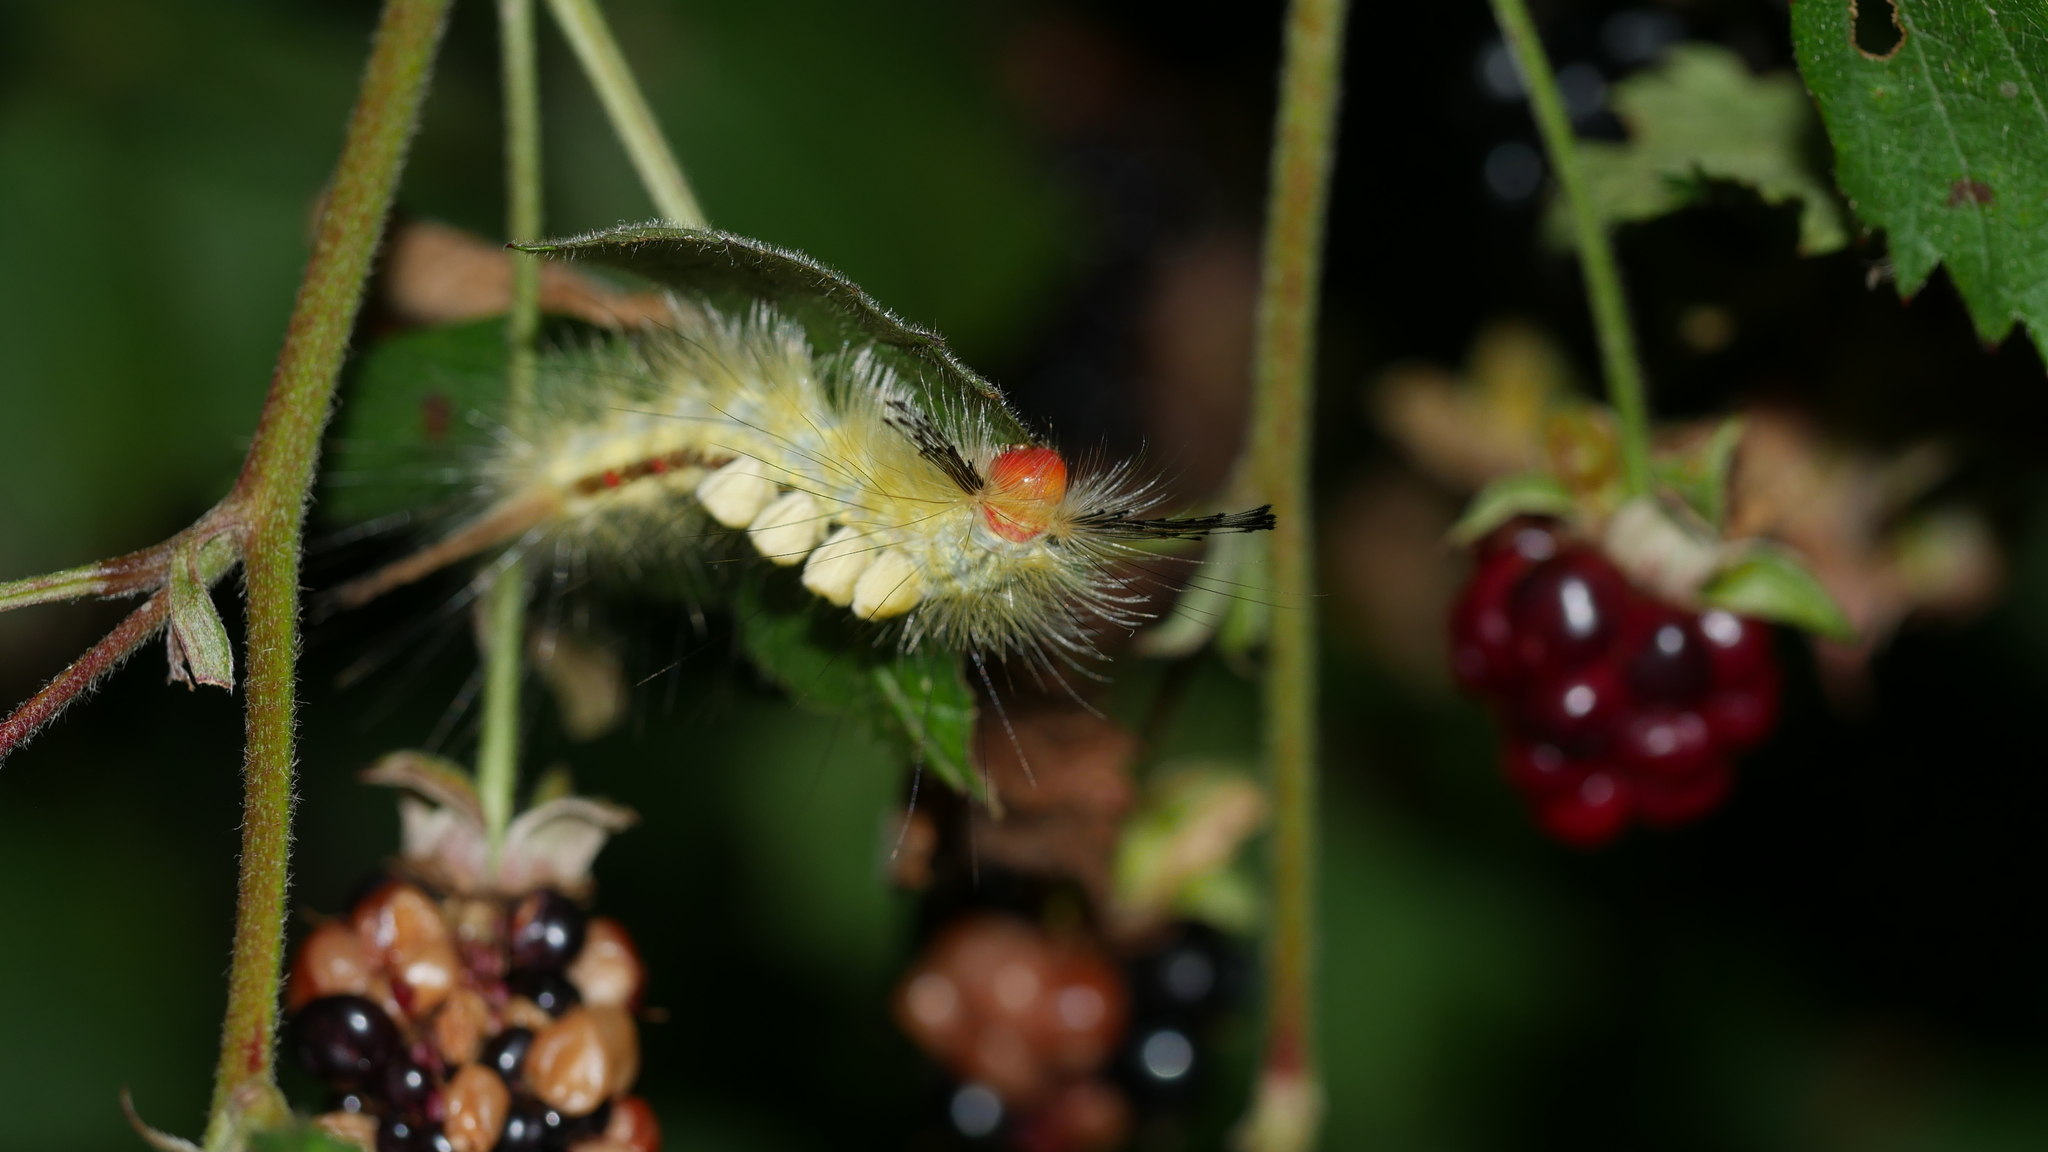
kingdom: Animalia
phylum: Arthropoda
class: Insecta
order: Lepidoptera
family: Erebidae
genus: Orgyia
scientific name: Orgyia leucostigma
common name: White-marked tussock moth
